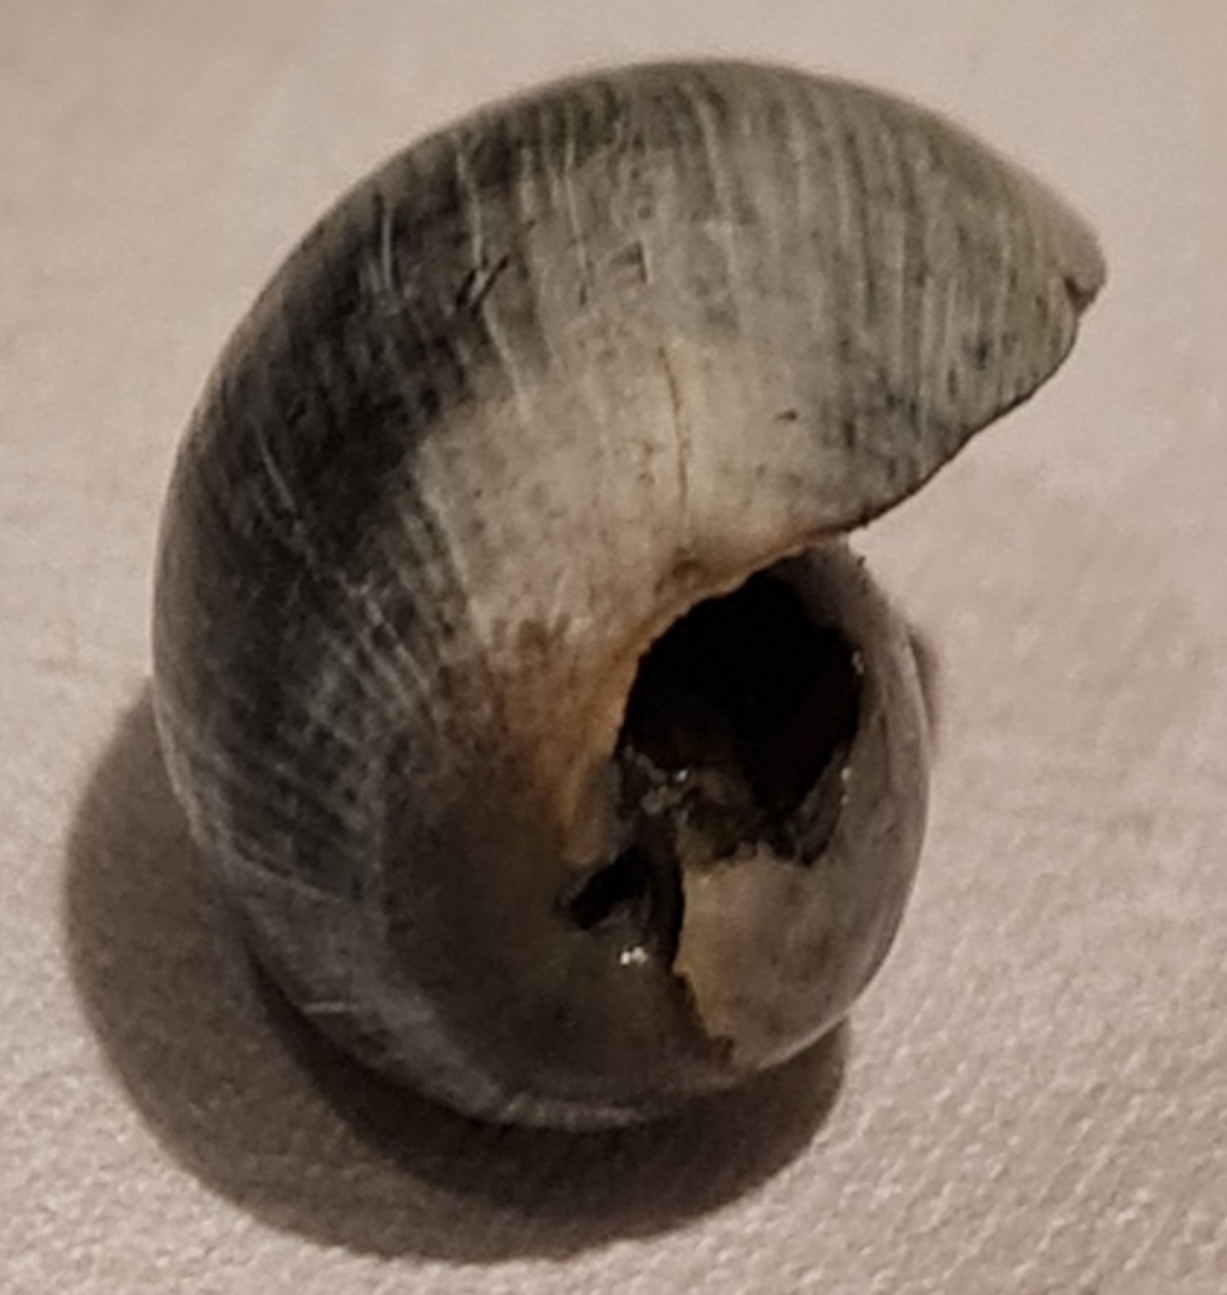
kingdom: Animalia
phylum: Mollusca
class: Gastropoda
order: Cephalaspidea
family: Bullidae
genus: Bulla
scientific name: Bulla occidentalis
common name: Common west-indian bubble
